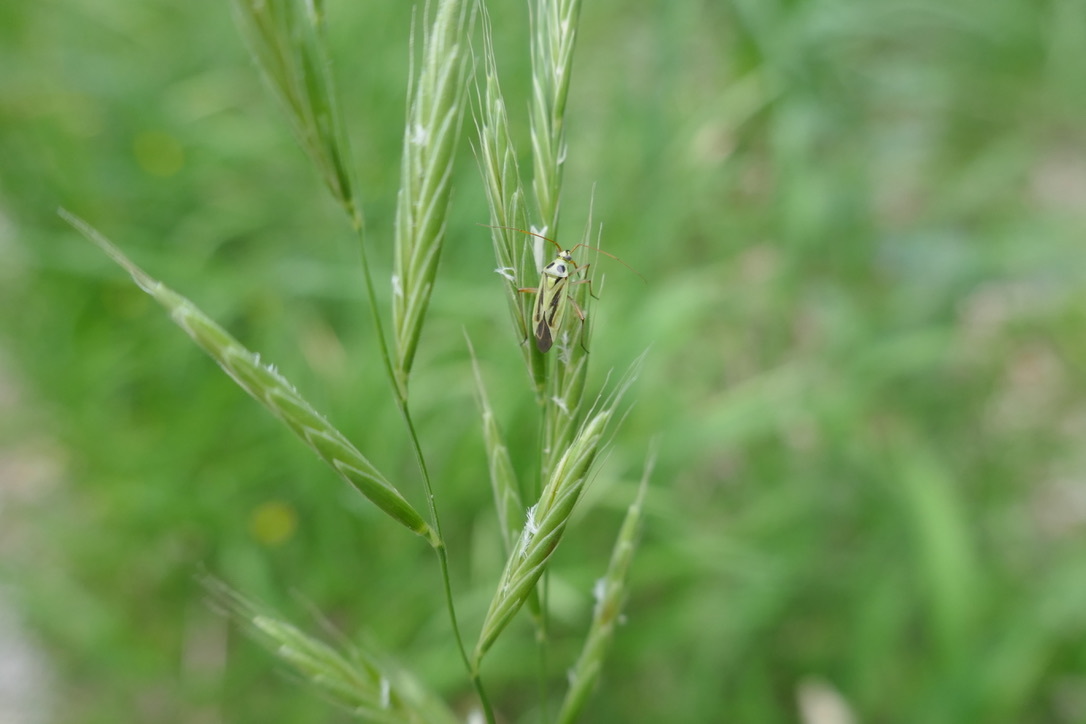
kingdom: Animalia
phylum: Arthropoda
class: Insecta
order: Hemiptera
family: Miridae
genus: Stenotus
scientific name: Stenotus binotatus
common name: Plant bug
